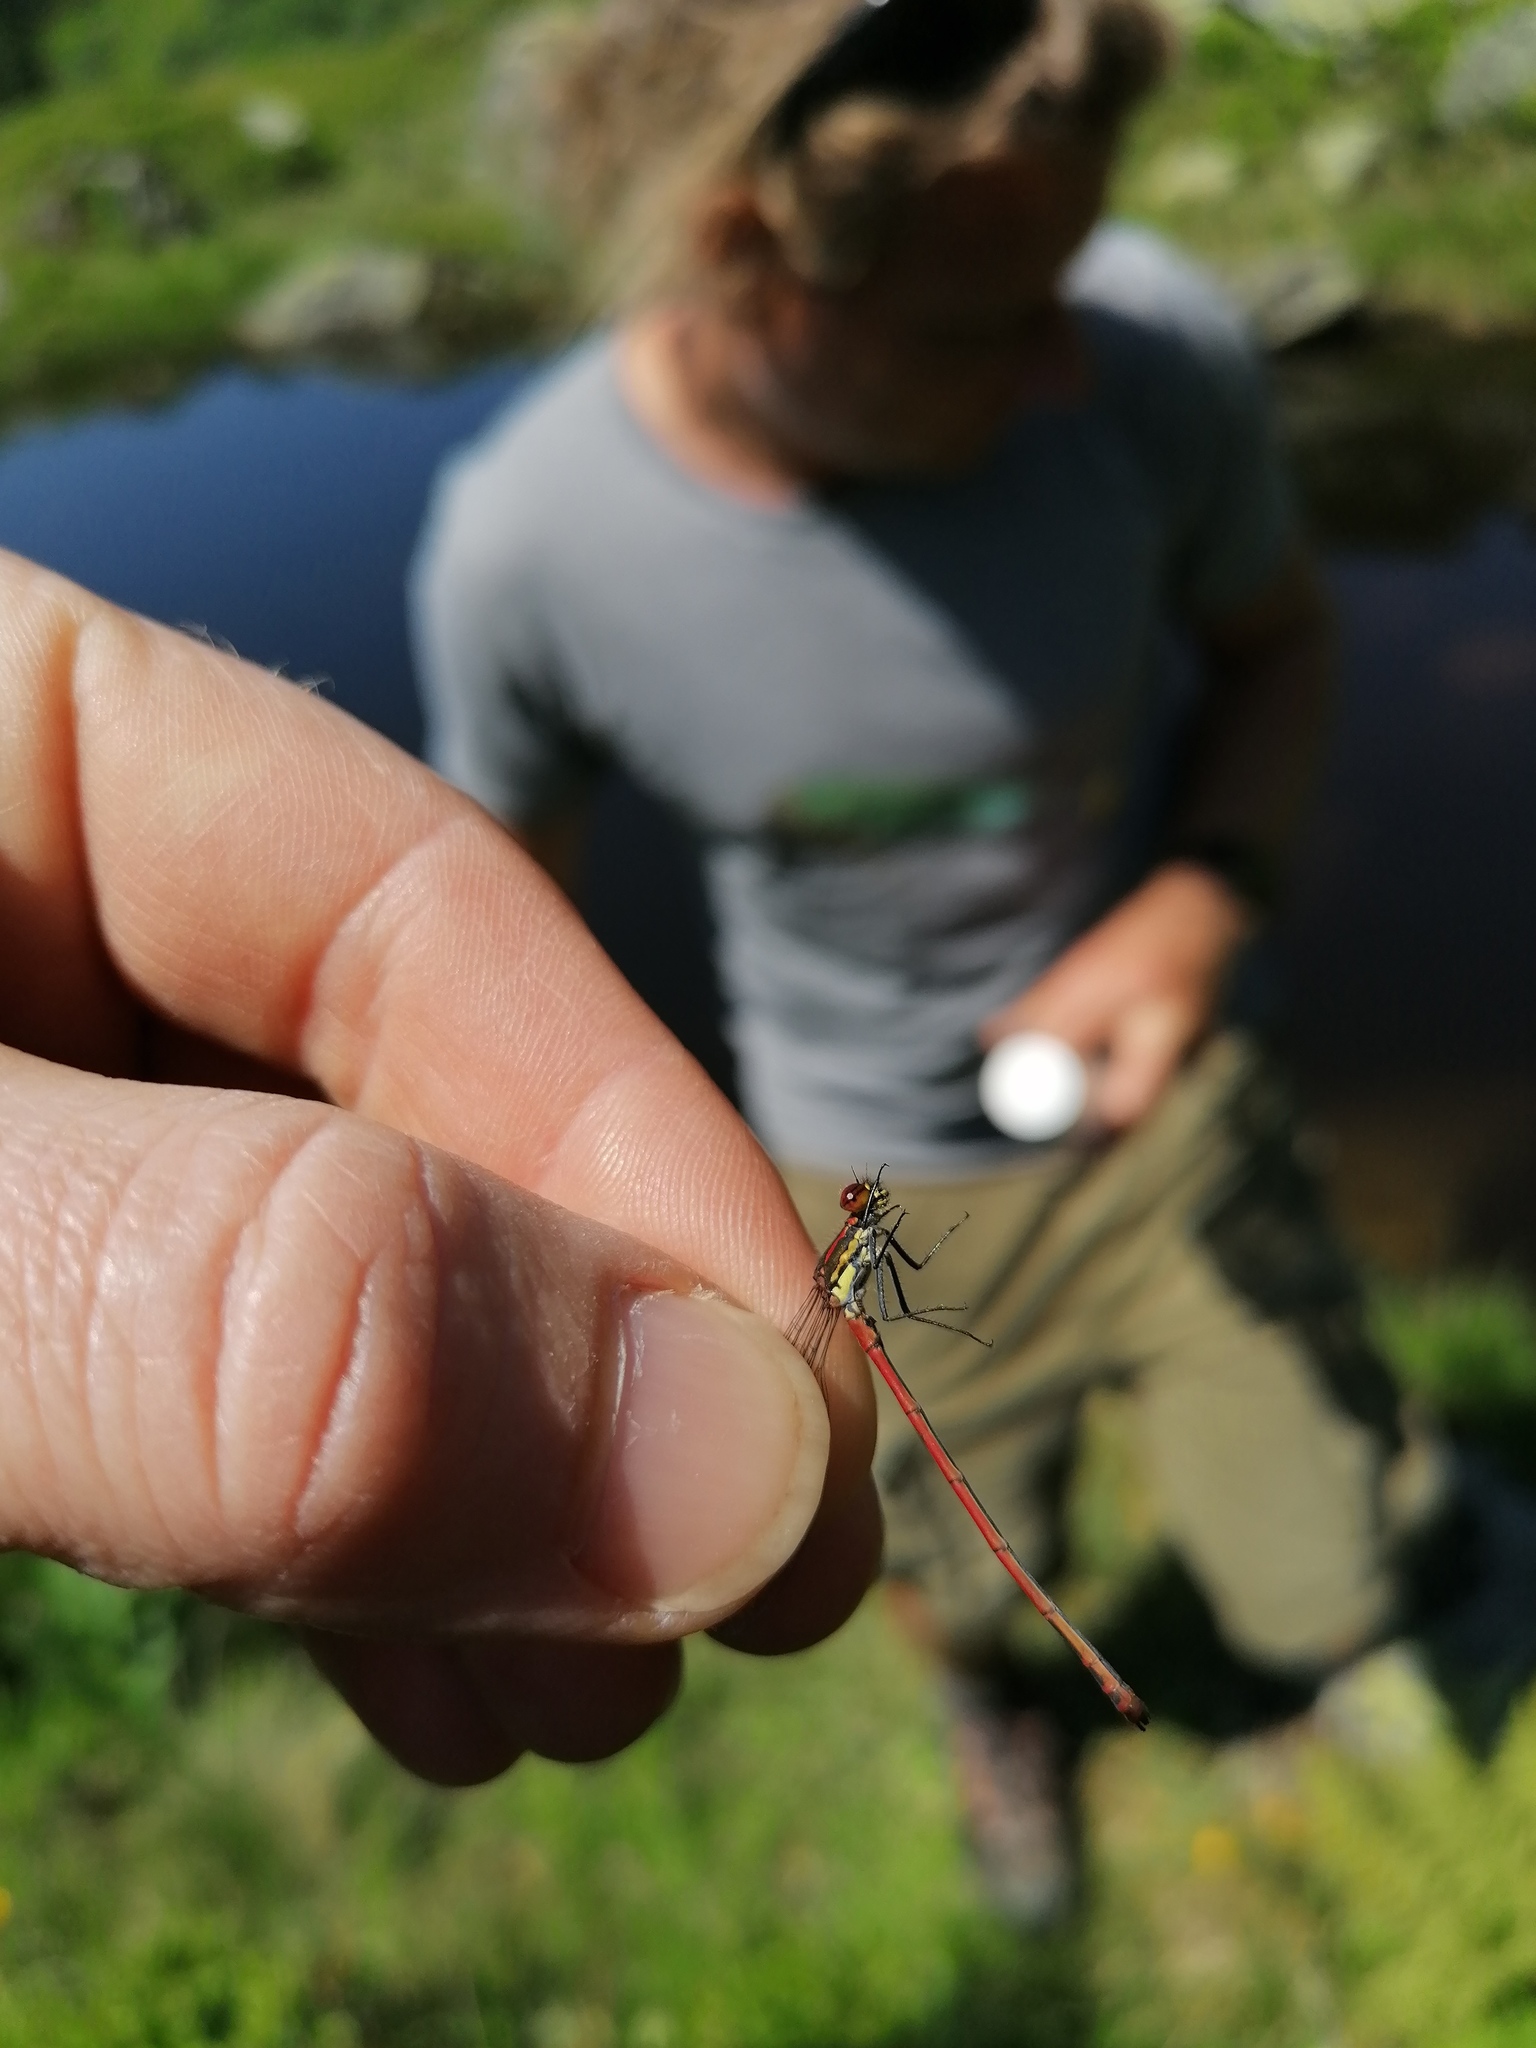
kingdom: Animalia
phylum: Arthropoda
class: Insecta
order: Odonata
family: Coenagrionidae
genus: Pyrrhosoma
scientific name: Pyrrhosoma nymphula
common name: Large red damsel
